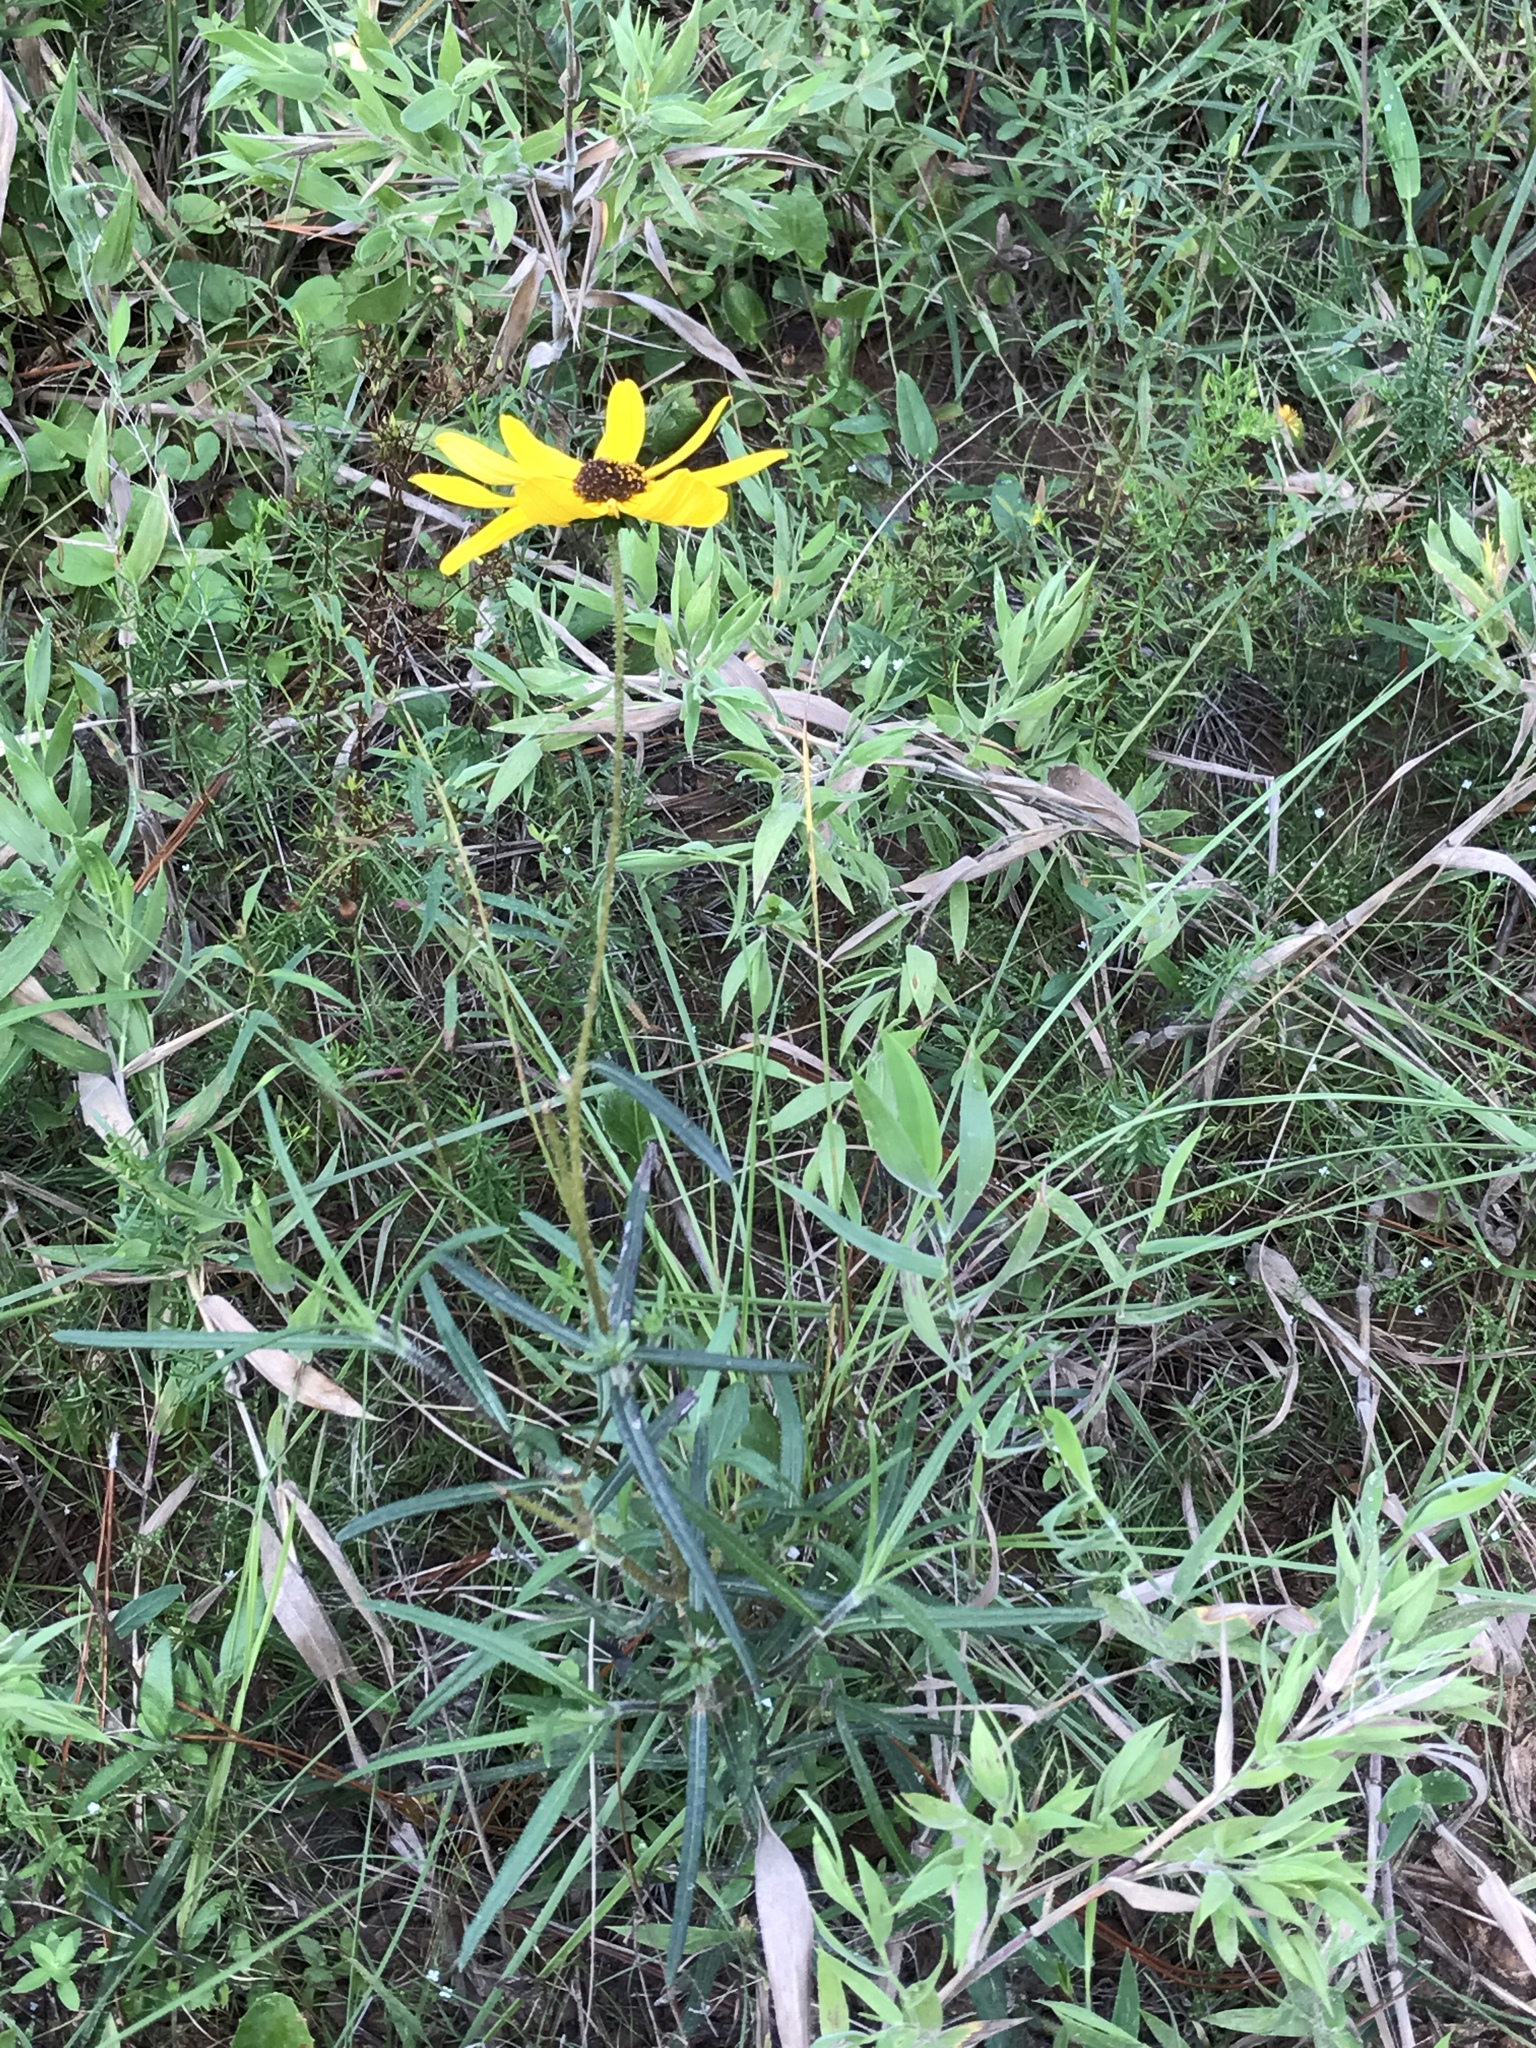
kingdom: Plantae
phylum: Tracheophyta
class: Magnoliopsida
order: Asterales
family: Asteraceae
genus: Helianthus
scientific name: Helianthus angustifolius
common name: Swamp sunflower
